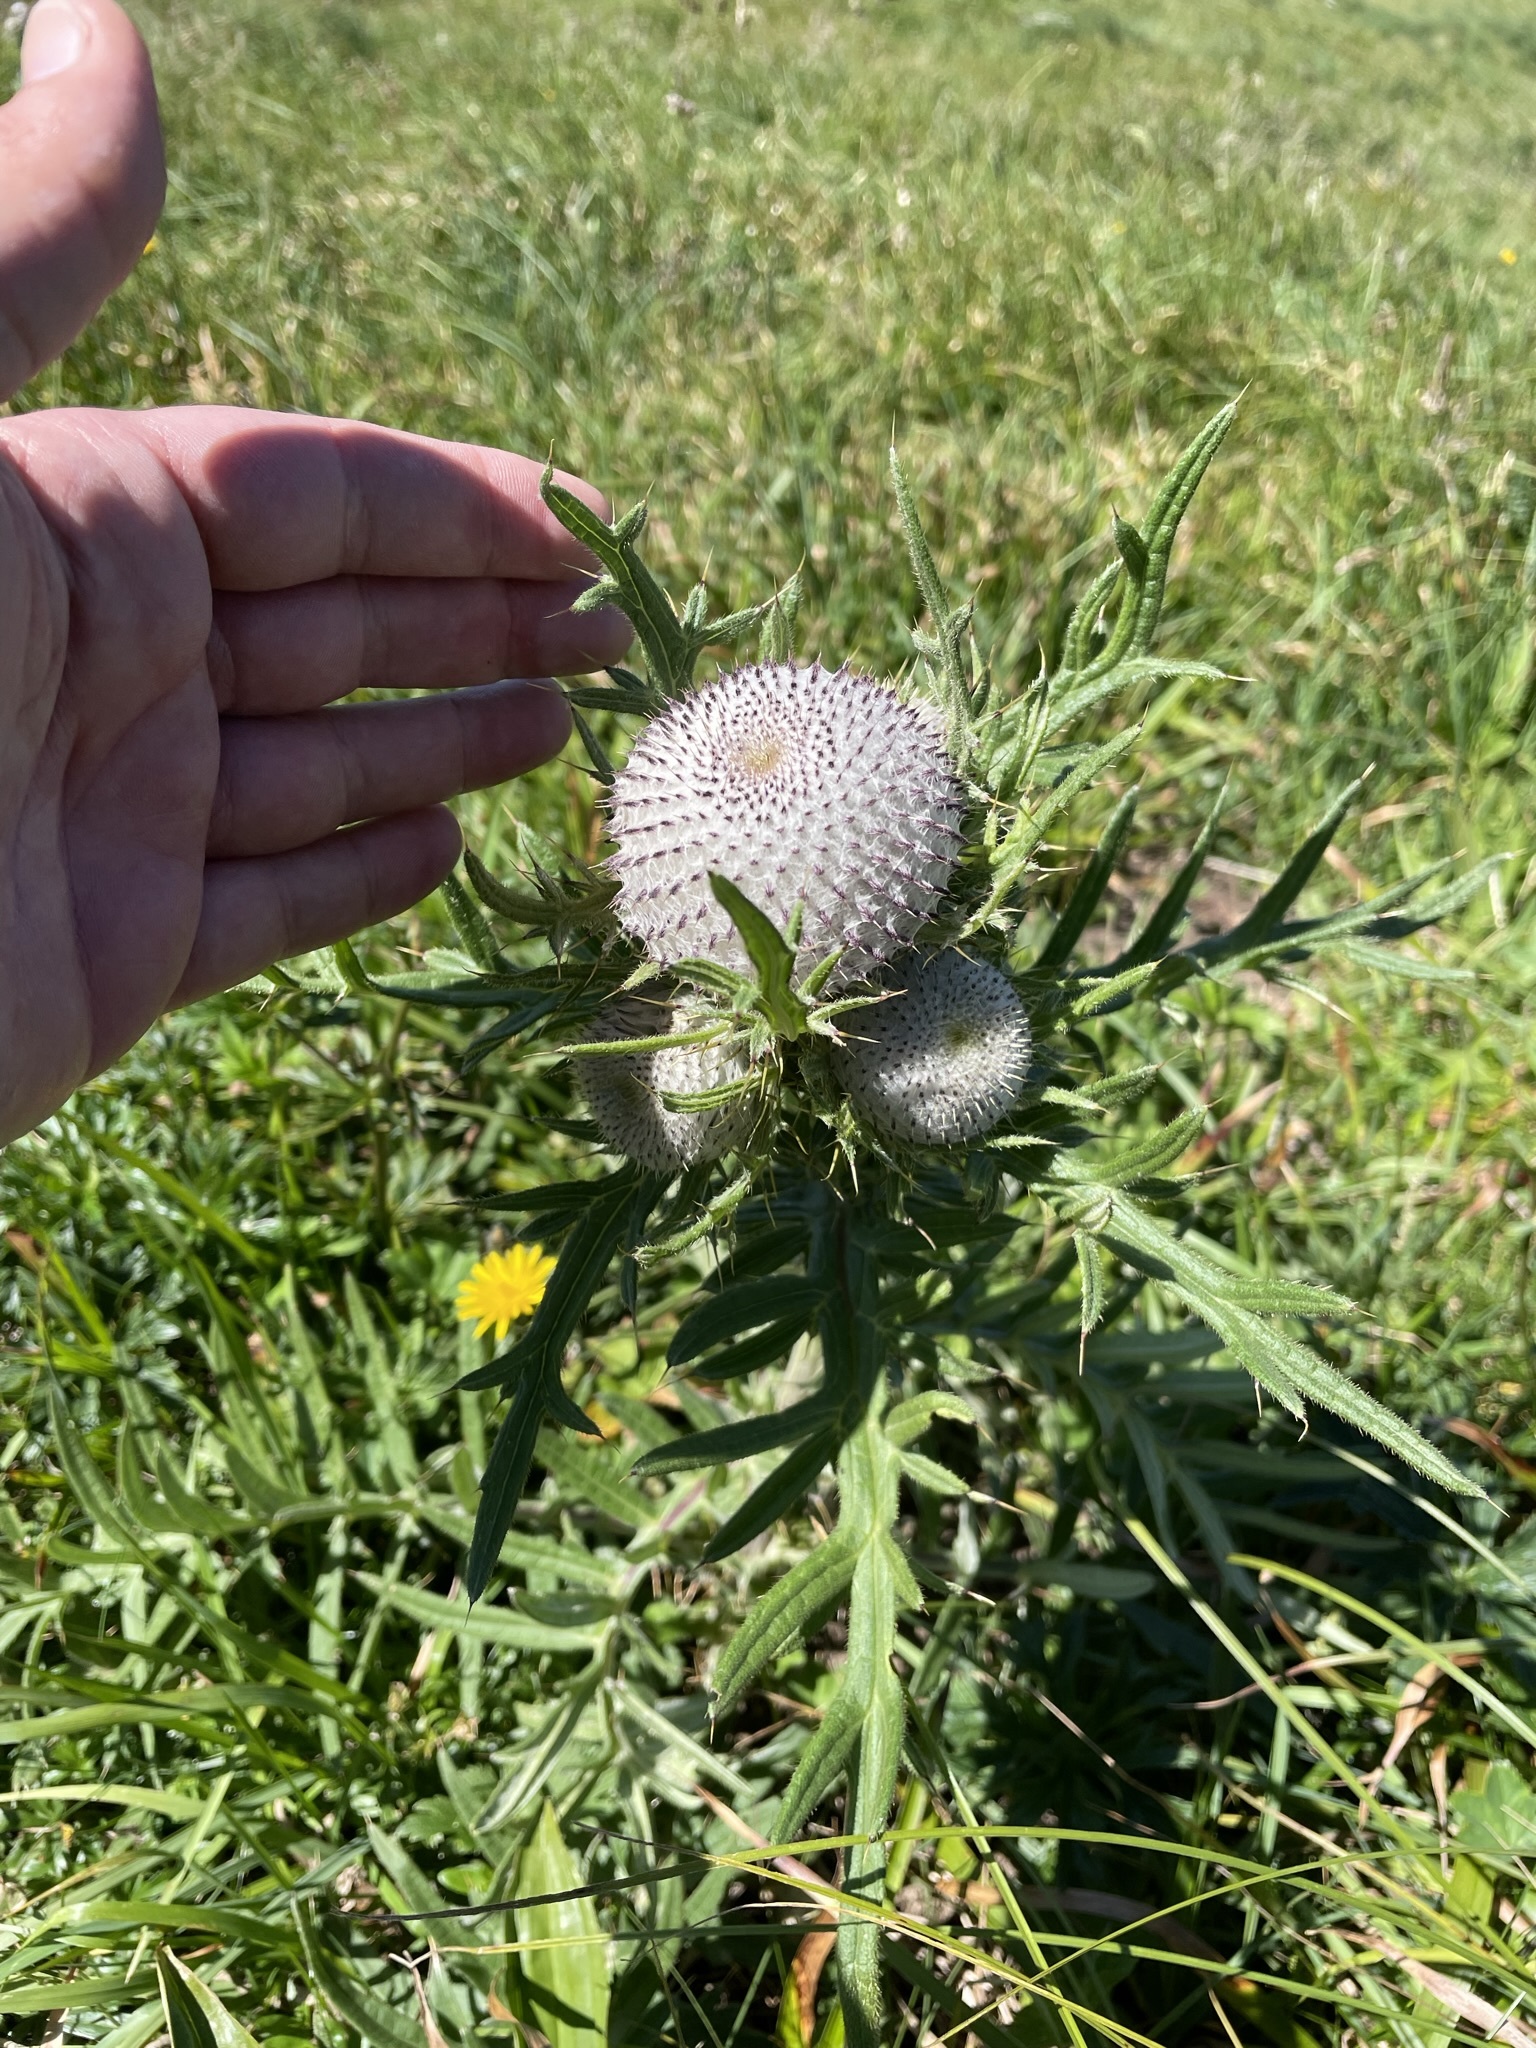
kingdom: Plantae
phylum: Tracheophyta
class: Magnoliopsida
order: Asterales
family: Asteraceae
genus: Lophiolepis
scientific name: Lophiolepis eriophora
